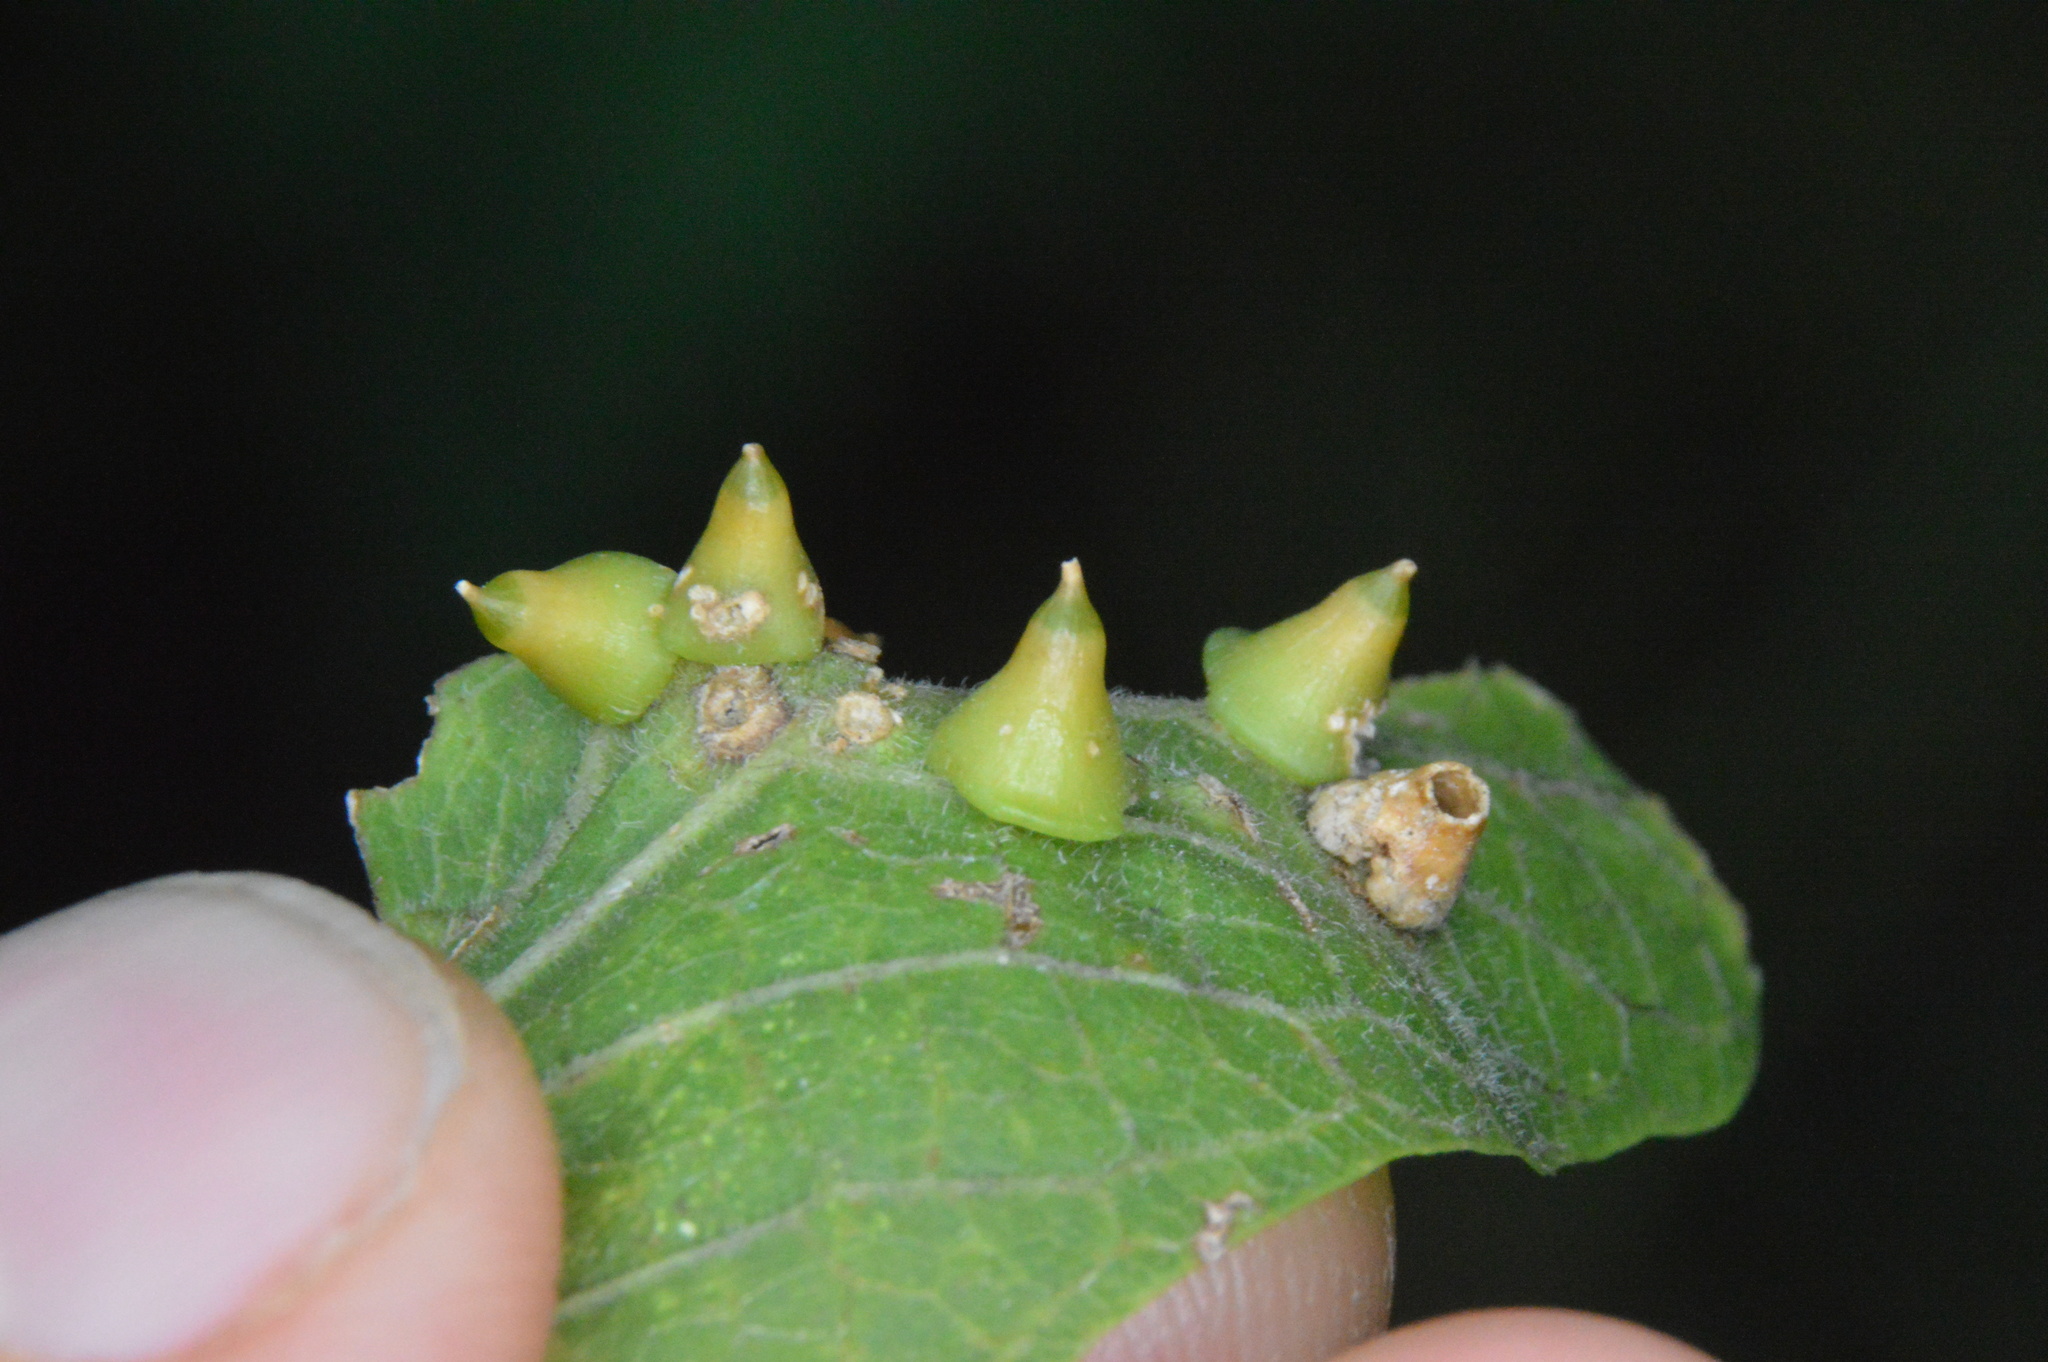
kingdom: Animalia
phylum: Arthropoda
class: Insecta
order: Diptera
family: Cecidomyiidae
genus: Celticecis
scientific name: Celticecis spiniformis
